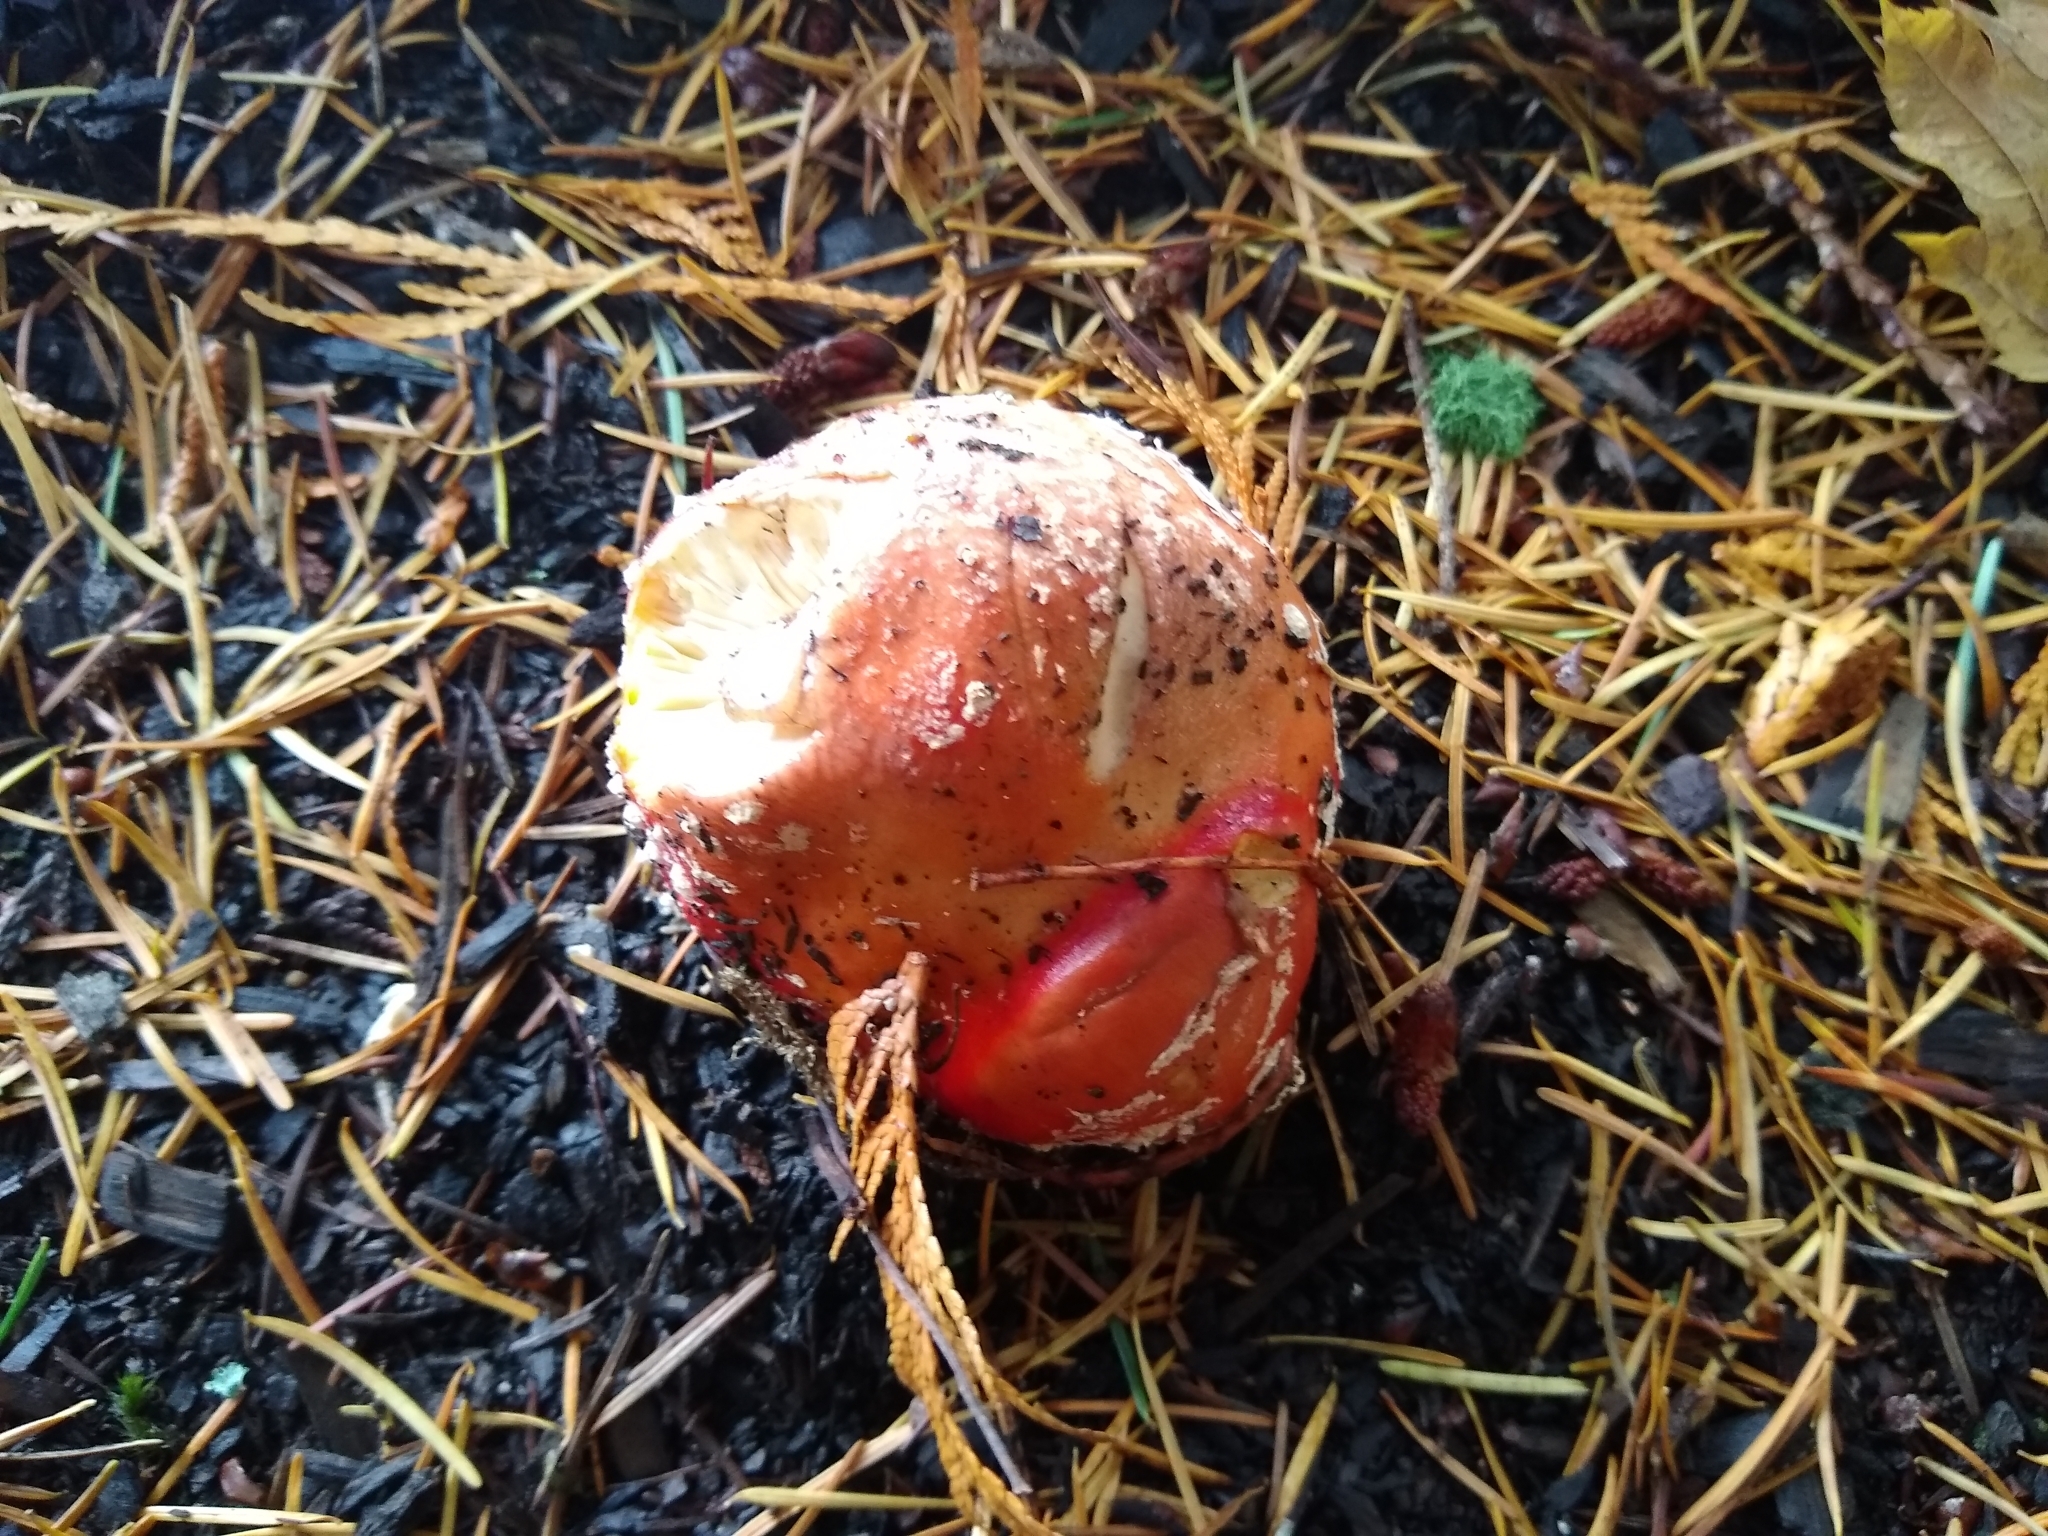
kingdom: Fungi
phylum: Basidiomycota
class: Agaricomycetes
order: Agaricales
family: Amanitaceae
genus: Amanita
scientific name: Amanita muscaria
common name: Fly agaric
